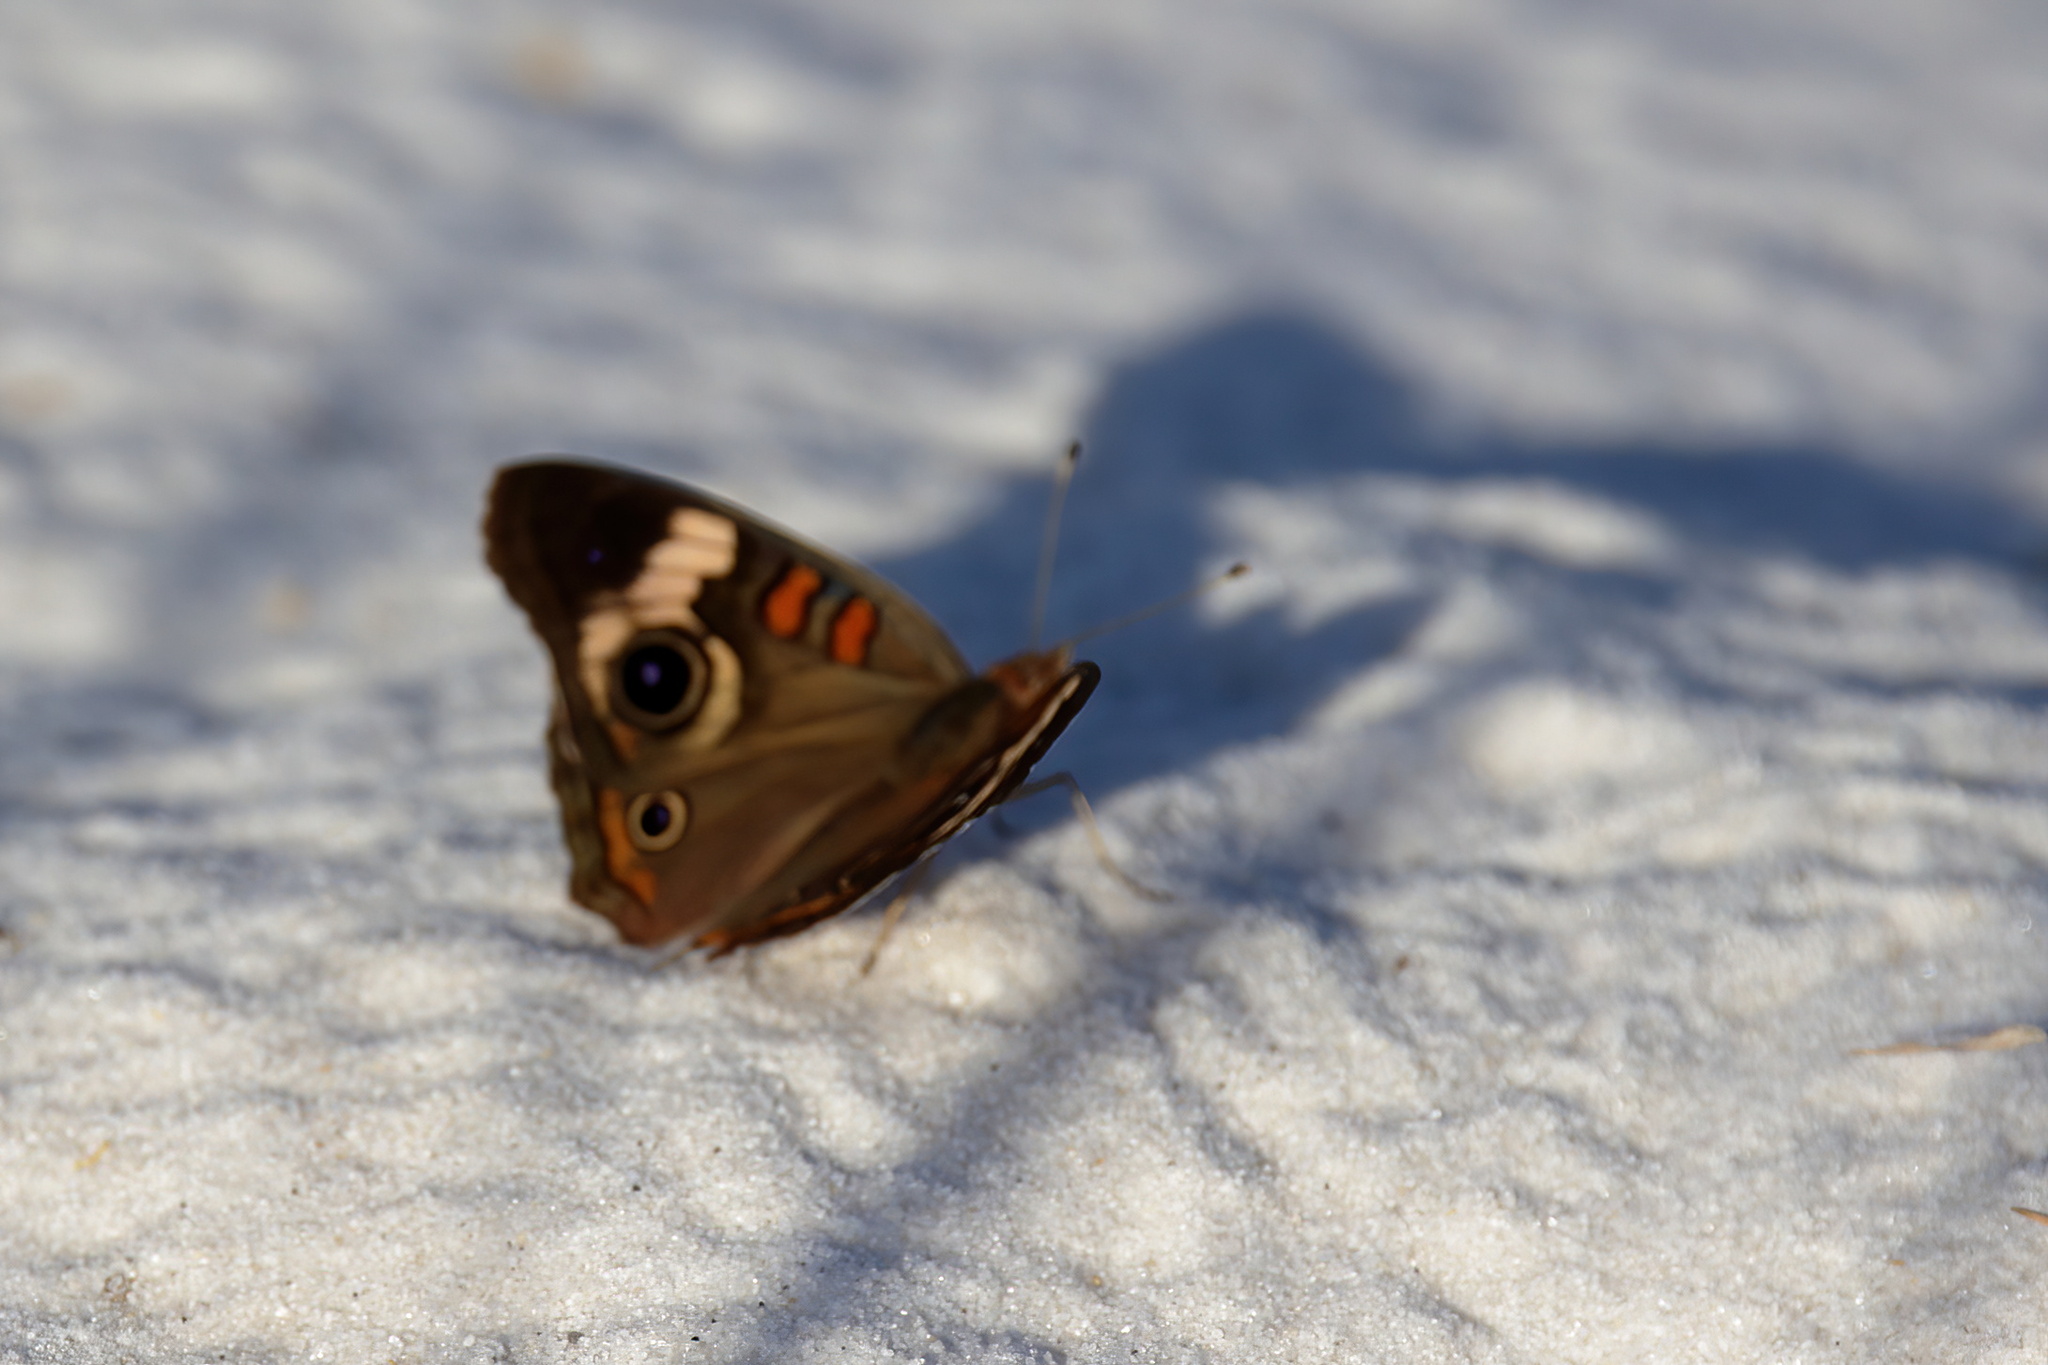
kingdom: Animalia
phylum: Arthropoda
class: Insecta
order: Lepidoptera
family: Nymphalidae
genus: Junonia
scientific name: Junonia coenia
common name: Common buckeye
